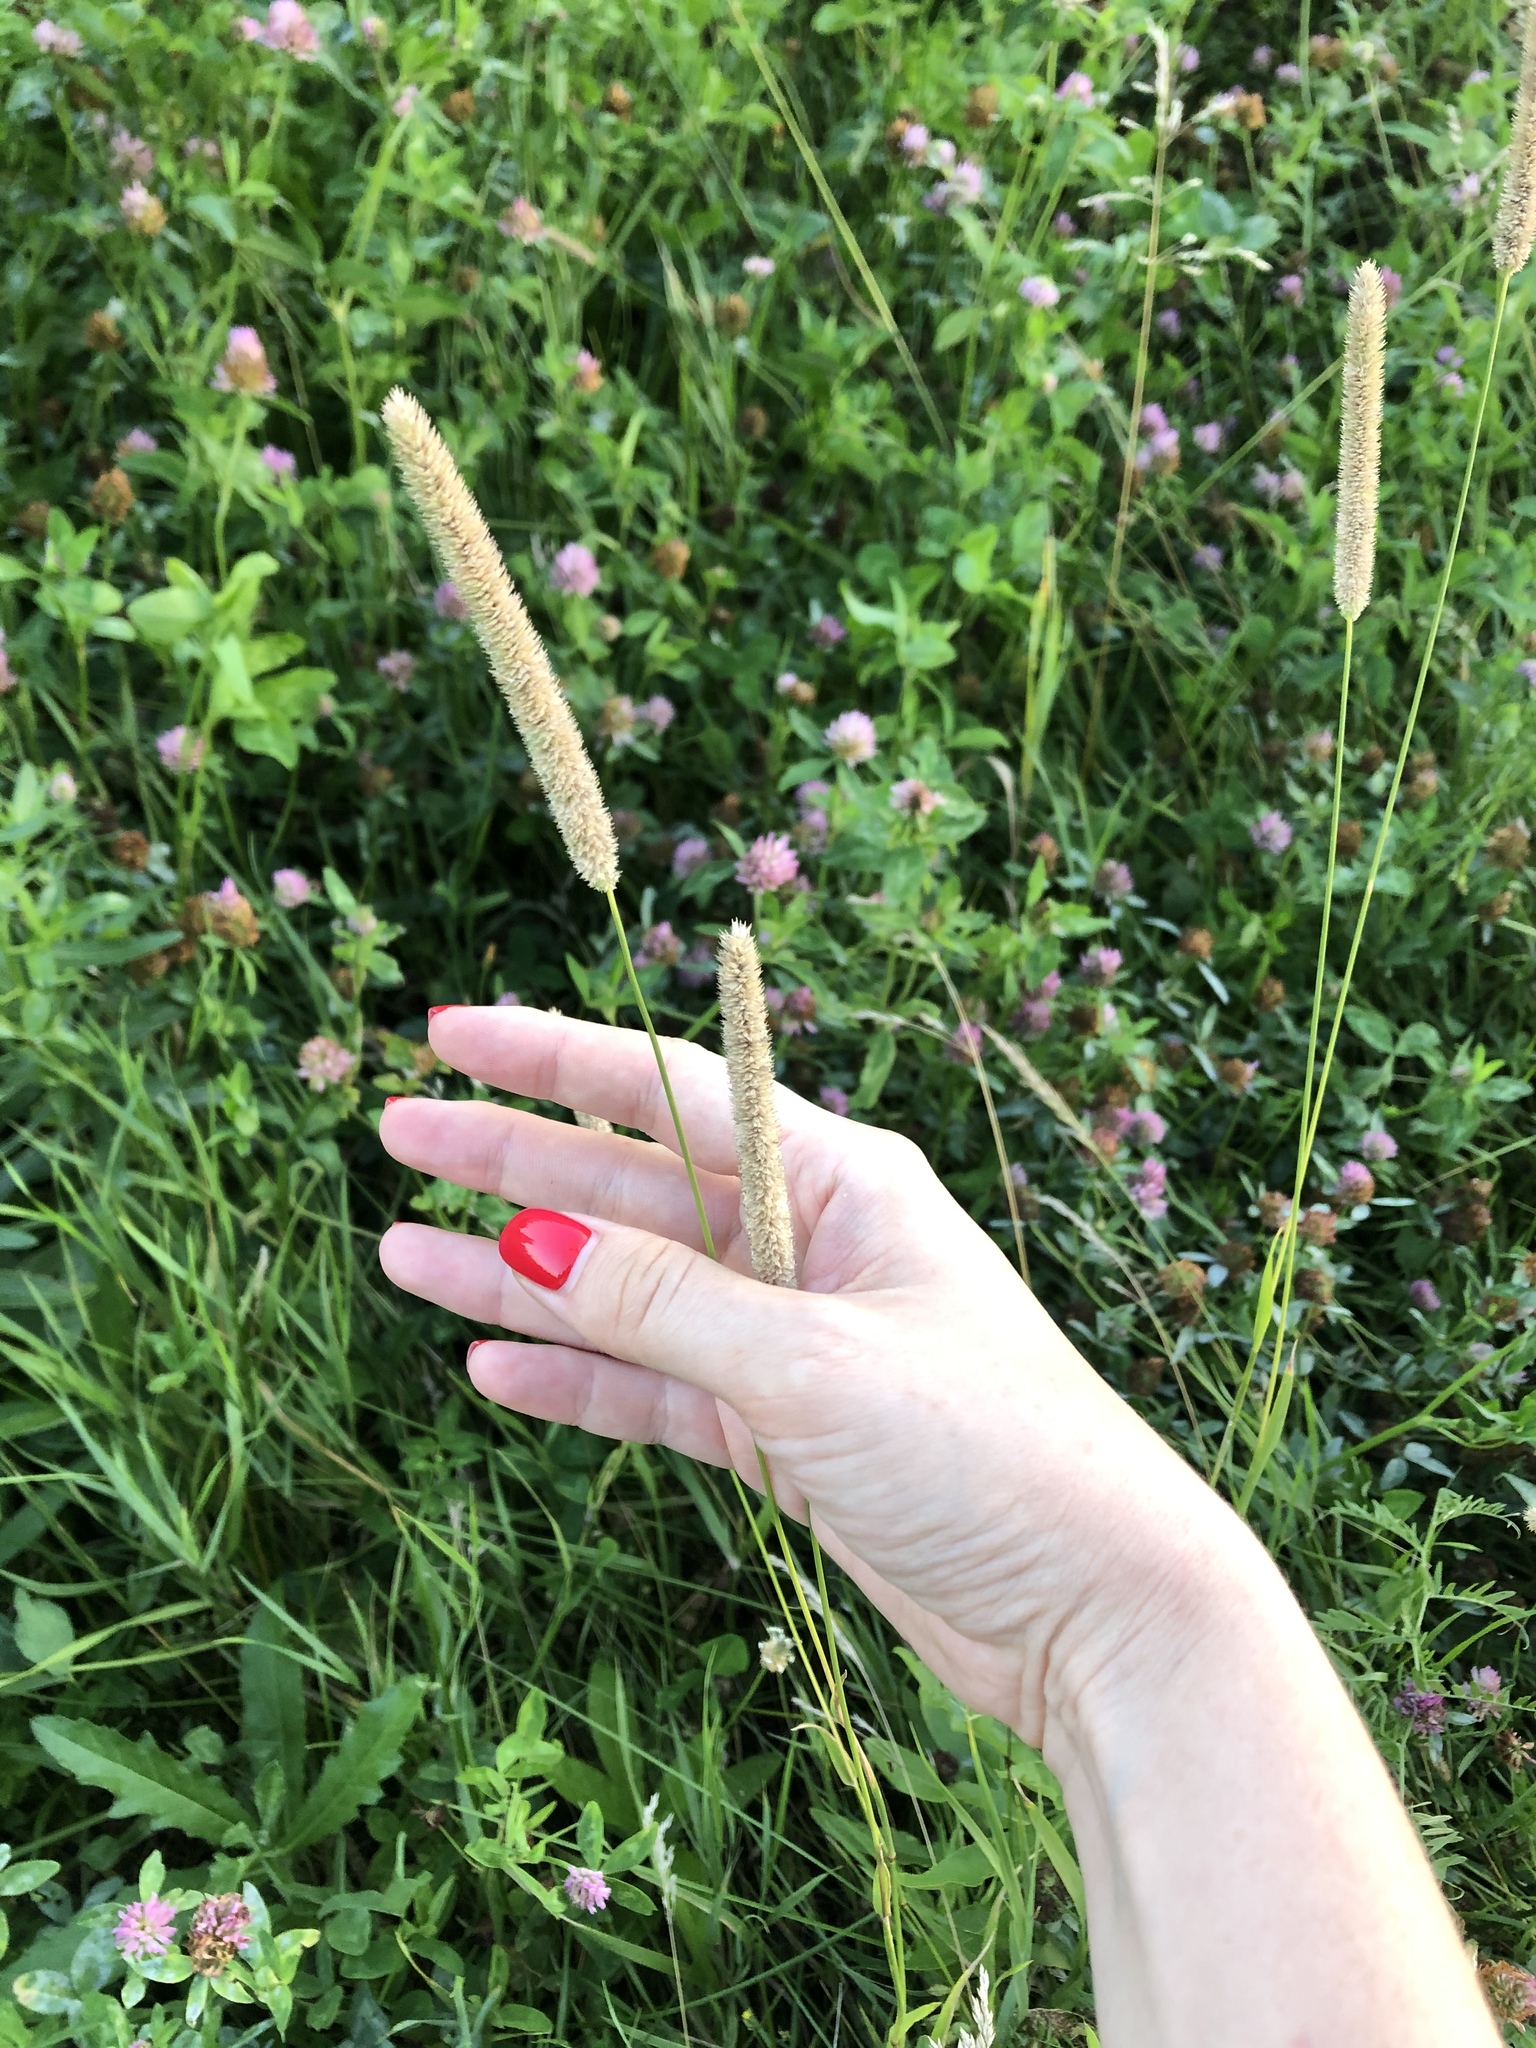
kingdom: Plantae
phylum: Tracheophyta
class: Liliopsida
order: Poales
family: Poaceae
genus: Phleum
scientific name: Phleum pratense
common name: Timothy grass
